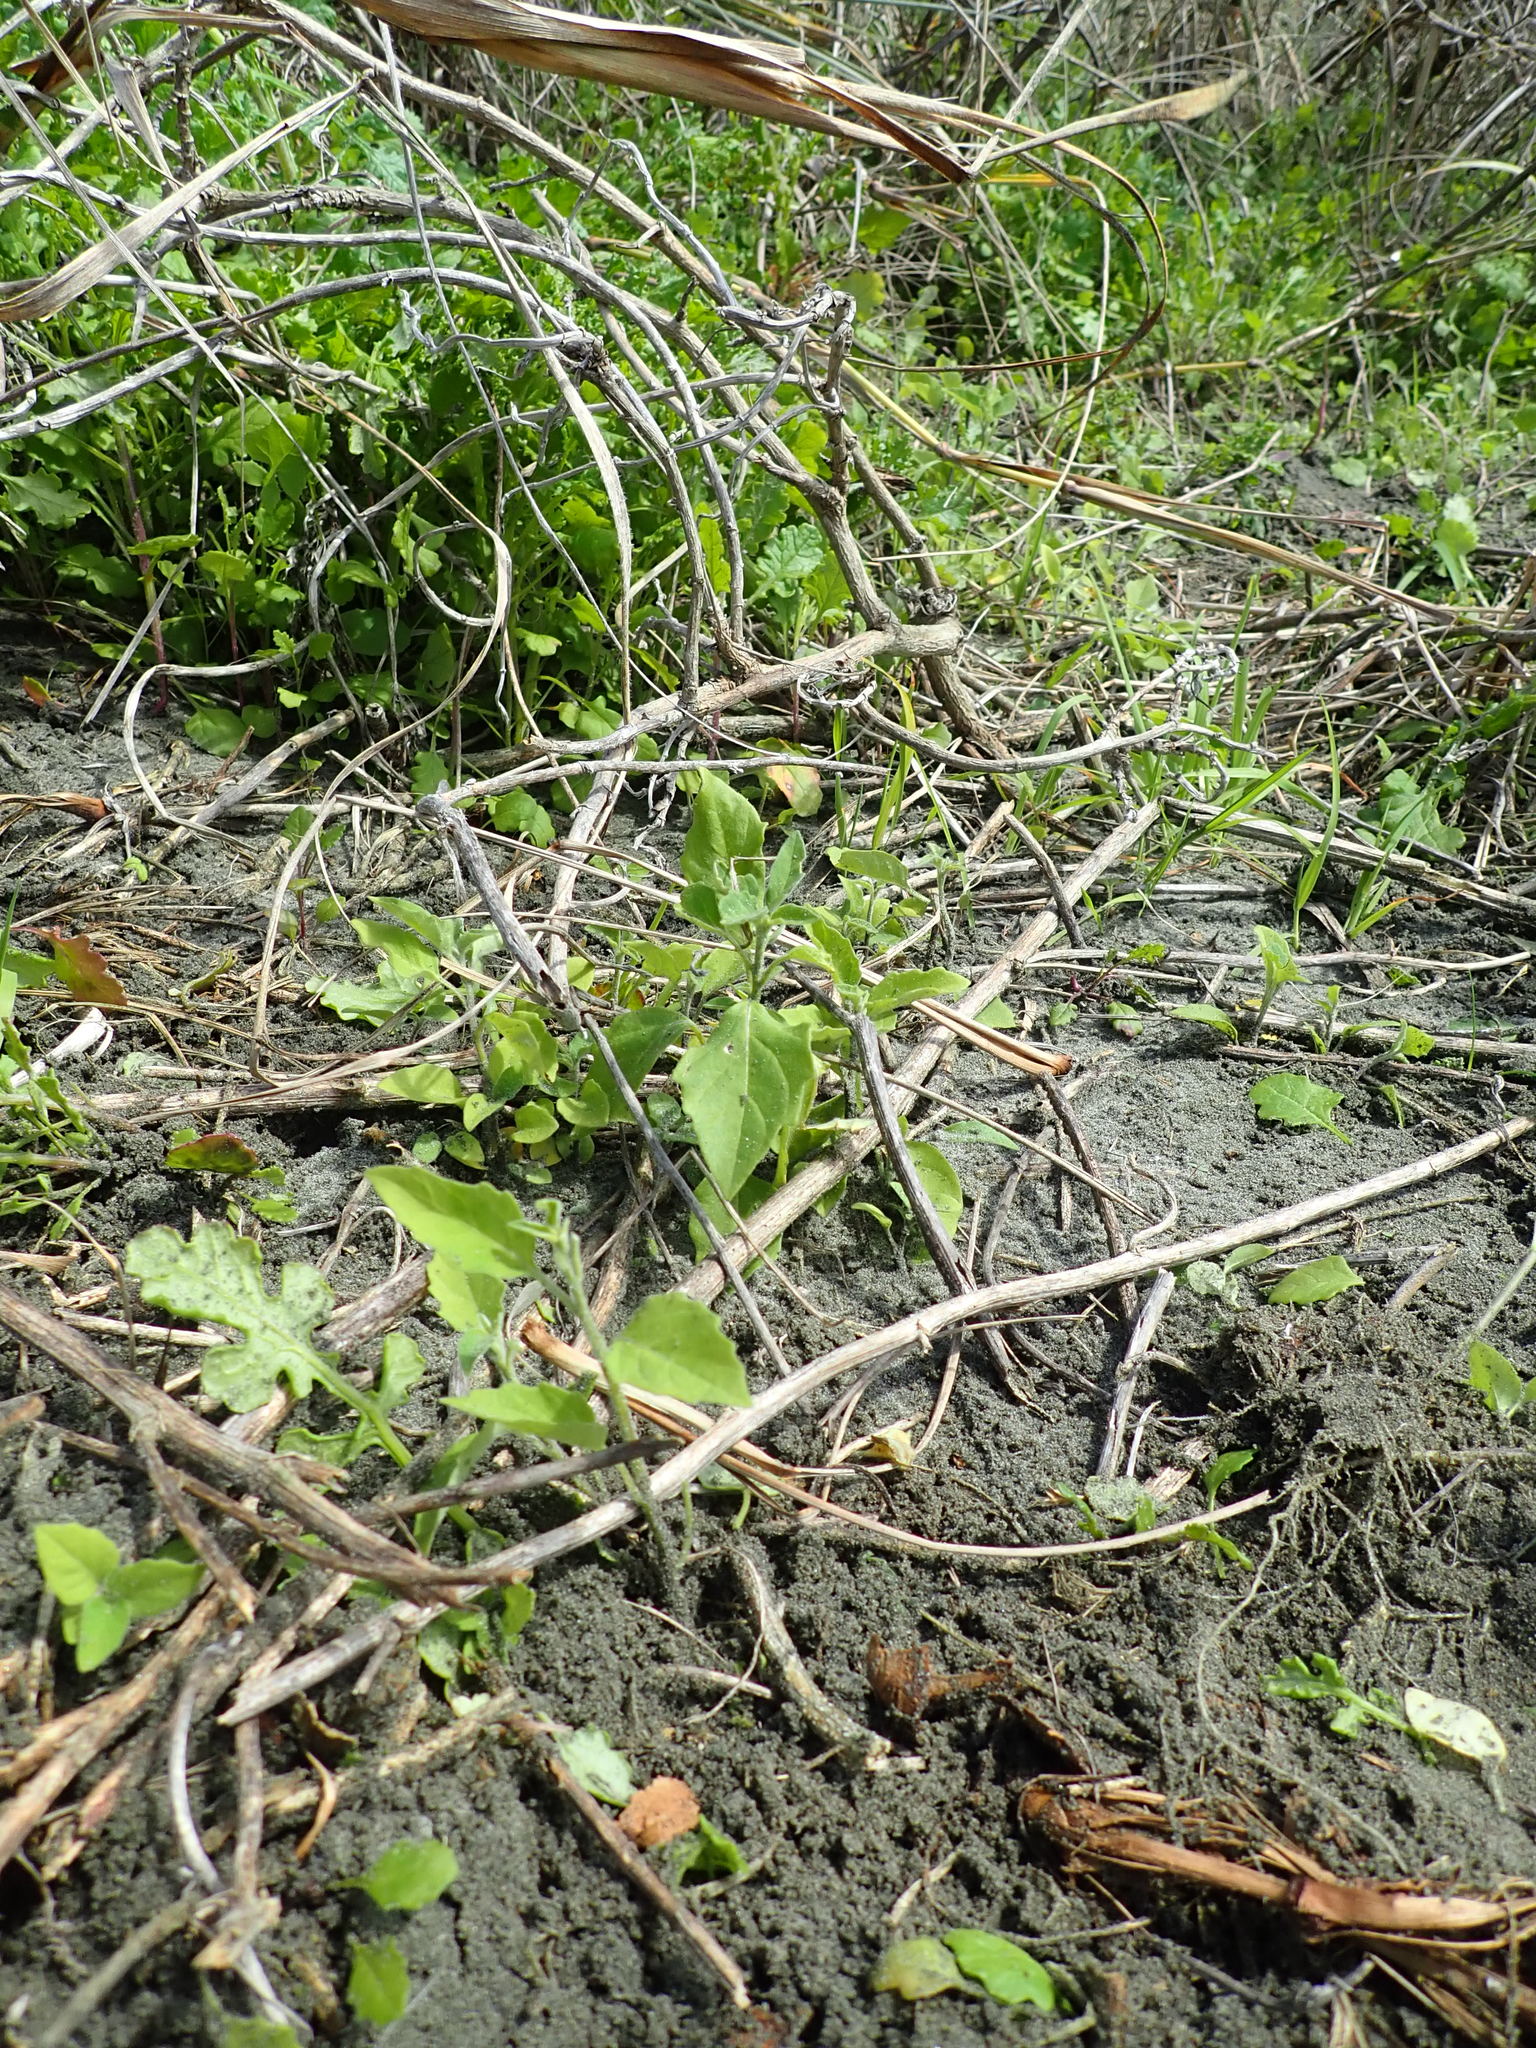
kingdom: Plantae
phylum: Tracheophyta
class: Magnoliopsida
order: Solanales
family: Solanaceae
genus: Solanum
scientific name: Solanum chenopodioides
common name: Tall nightshade
